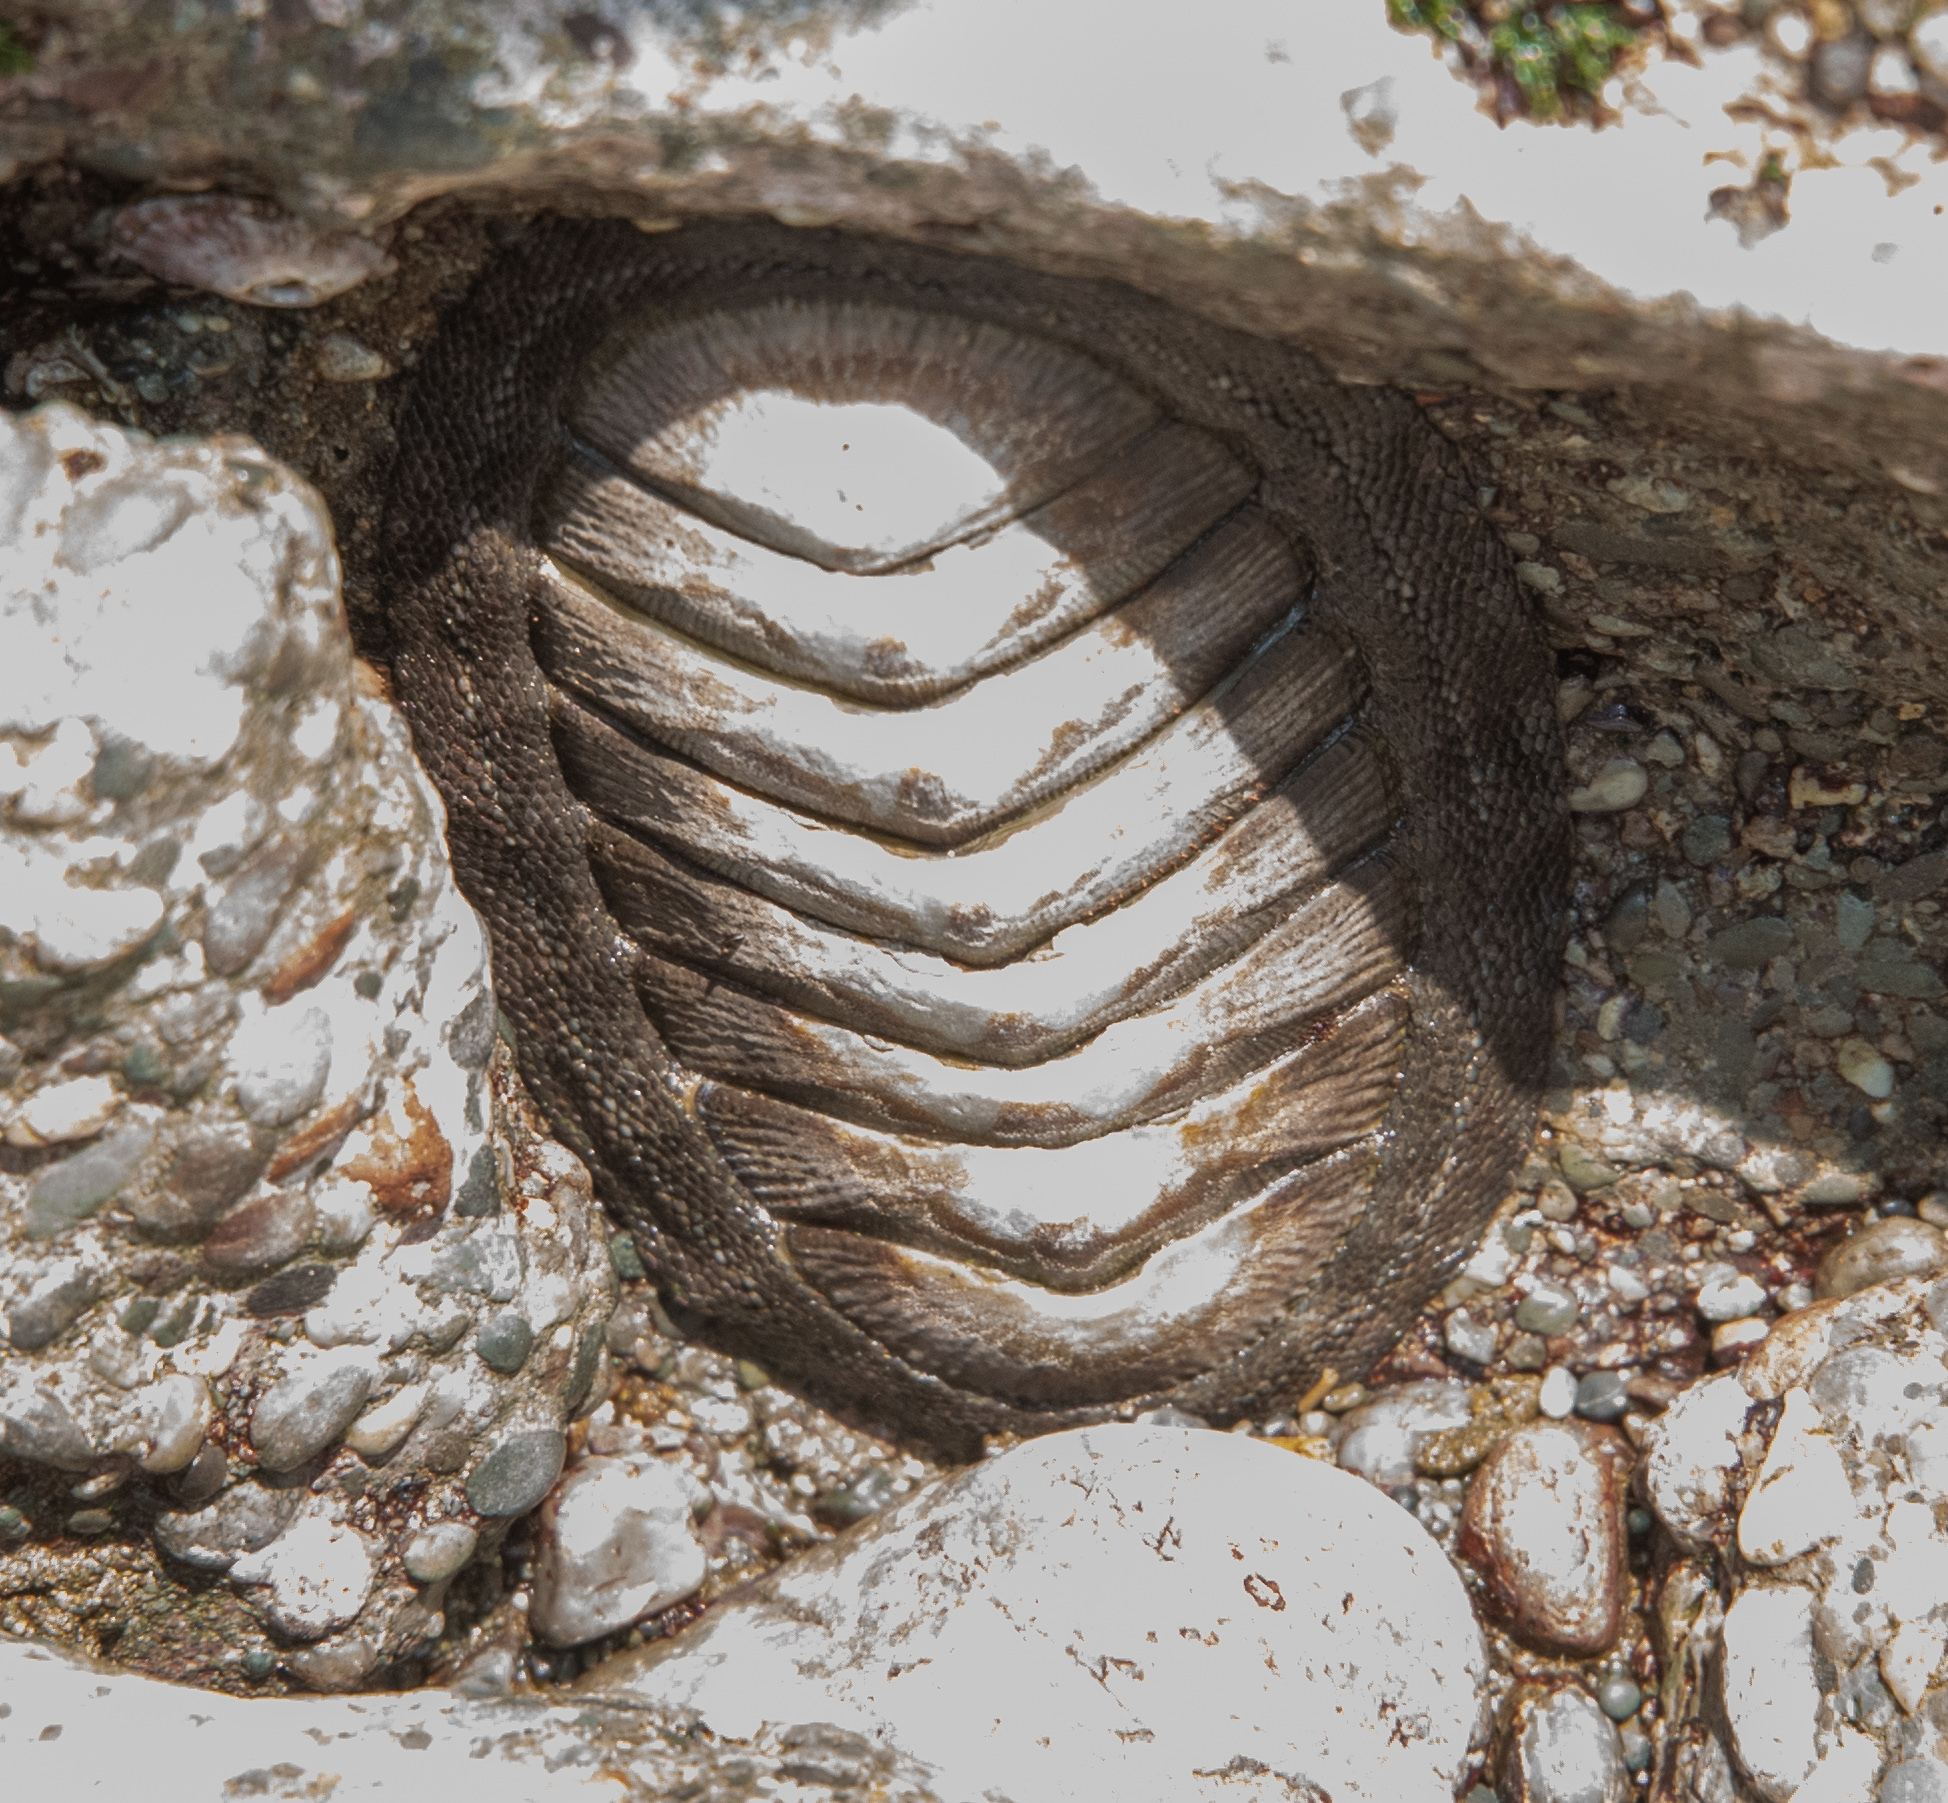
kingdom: Animalia
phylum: Mollusca
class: Polyplacophora
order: Chitonida
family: Chitonidae
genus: Chiton
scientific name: Chiton stokesii
